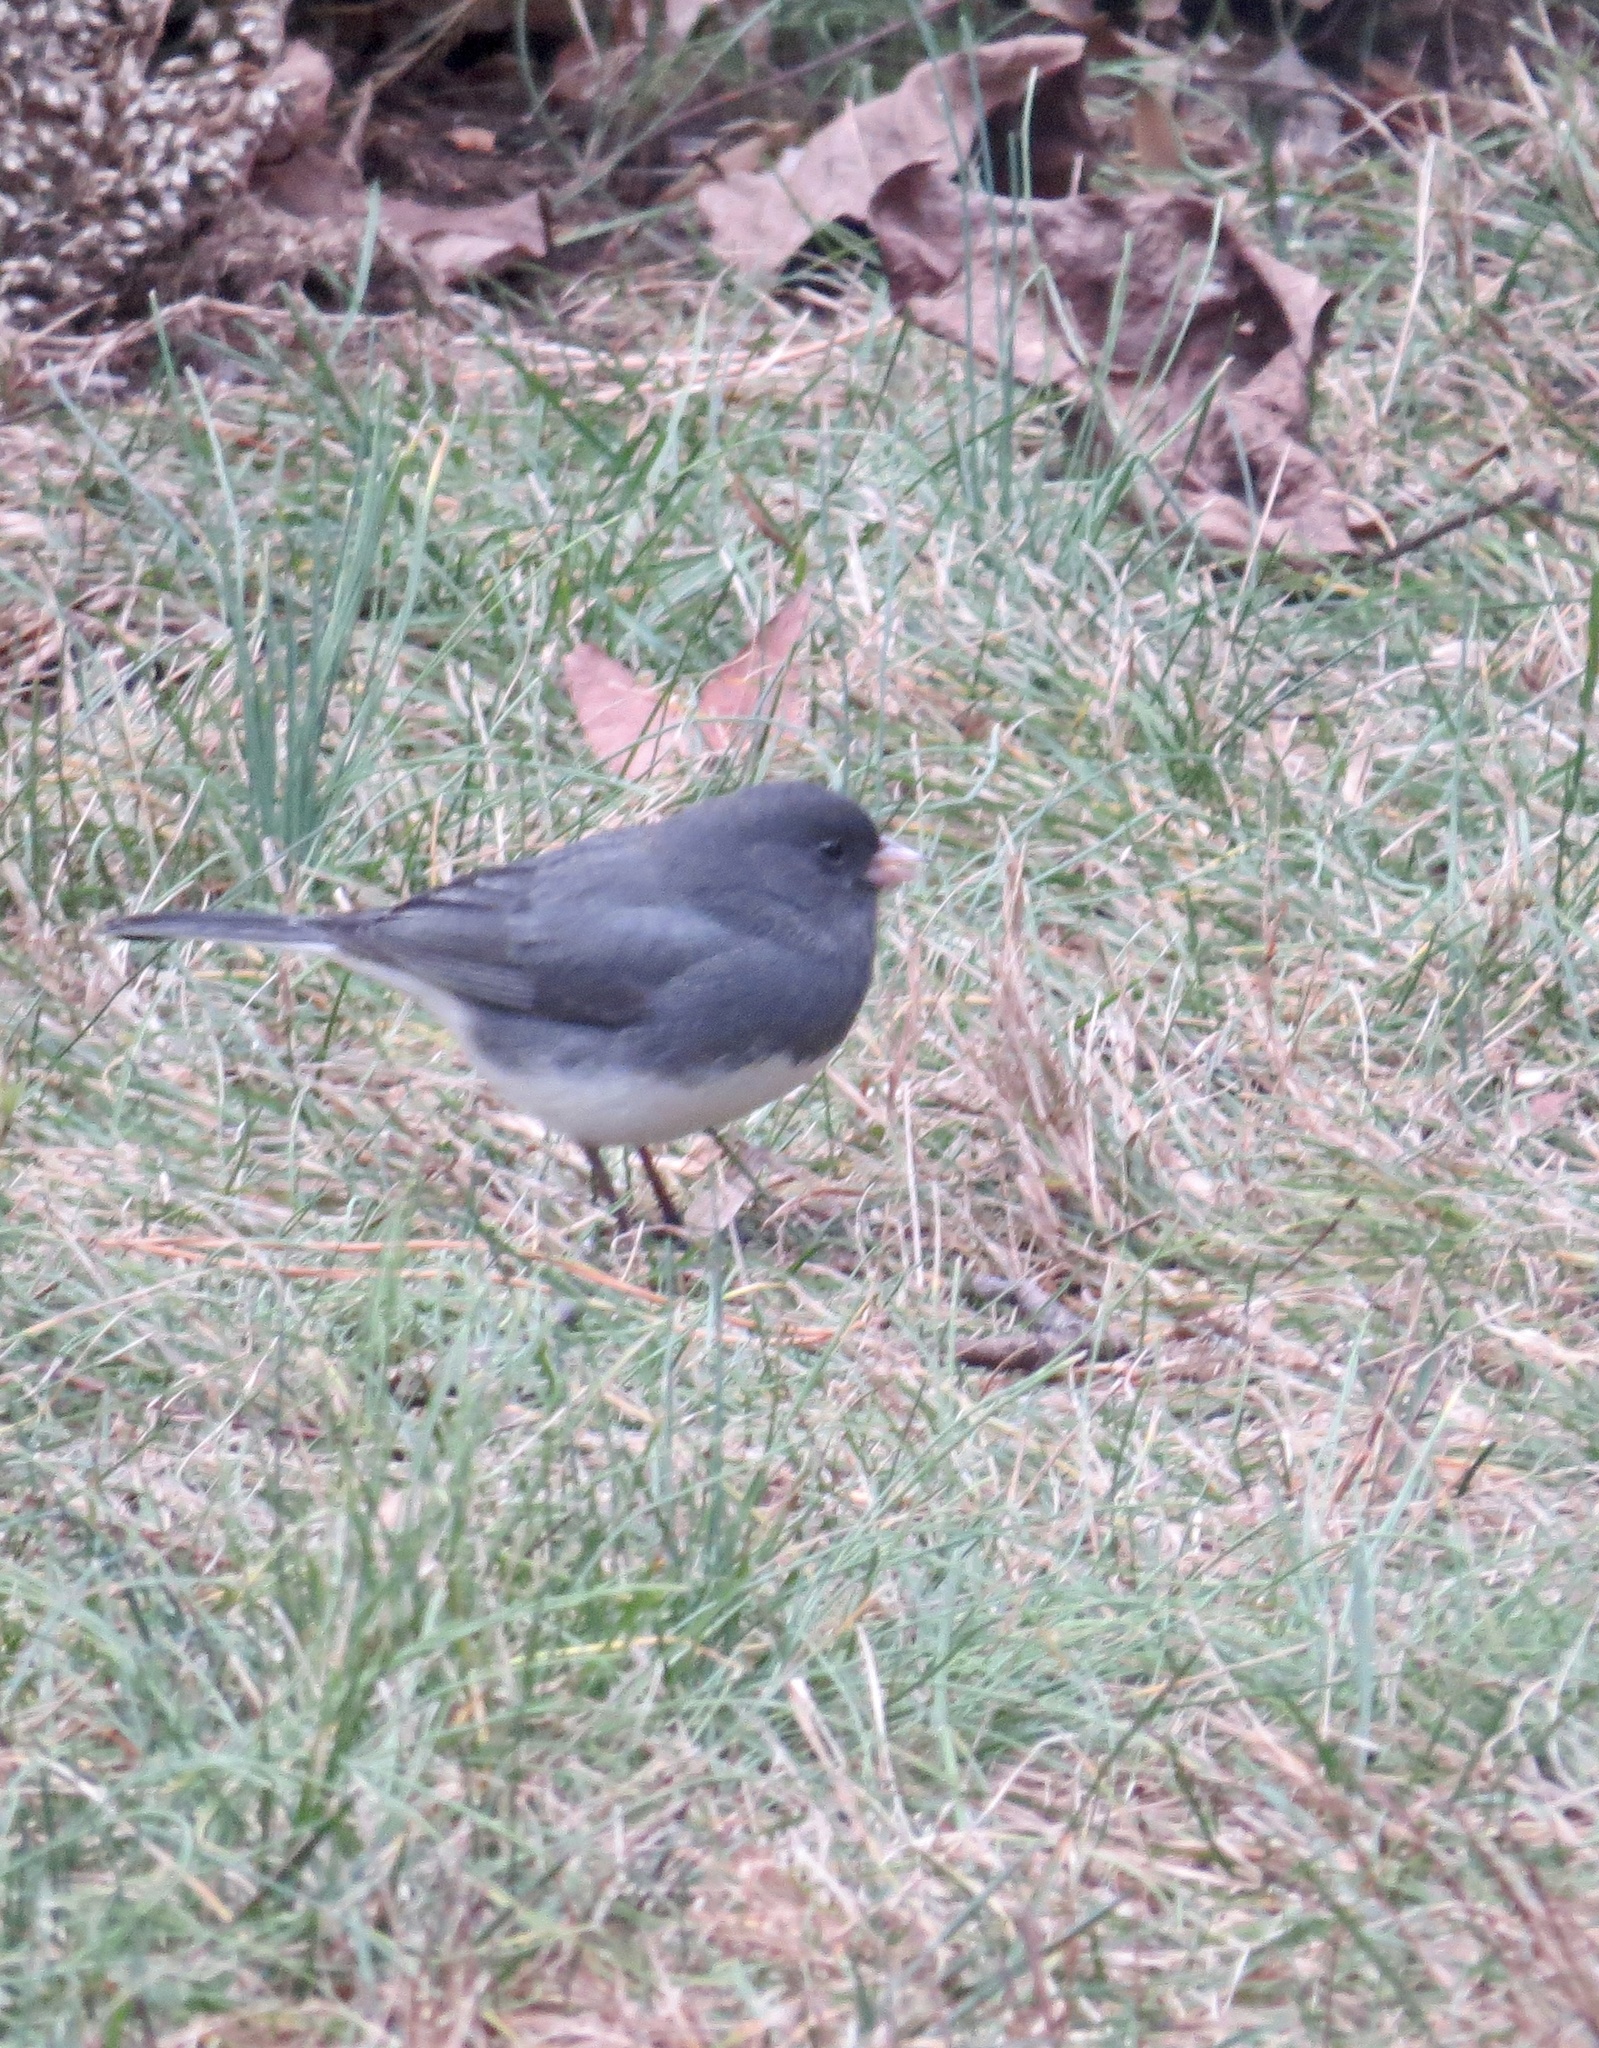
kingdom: Animalia
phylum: Chordata
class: Aves
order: Passeriformes
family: Passerellidae
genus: Junco
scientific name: Junco hyemalis
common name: Dark-eyed junco
